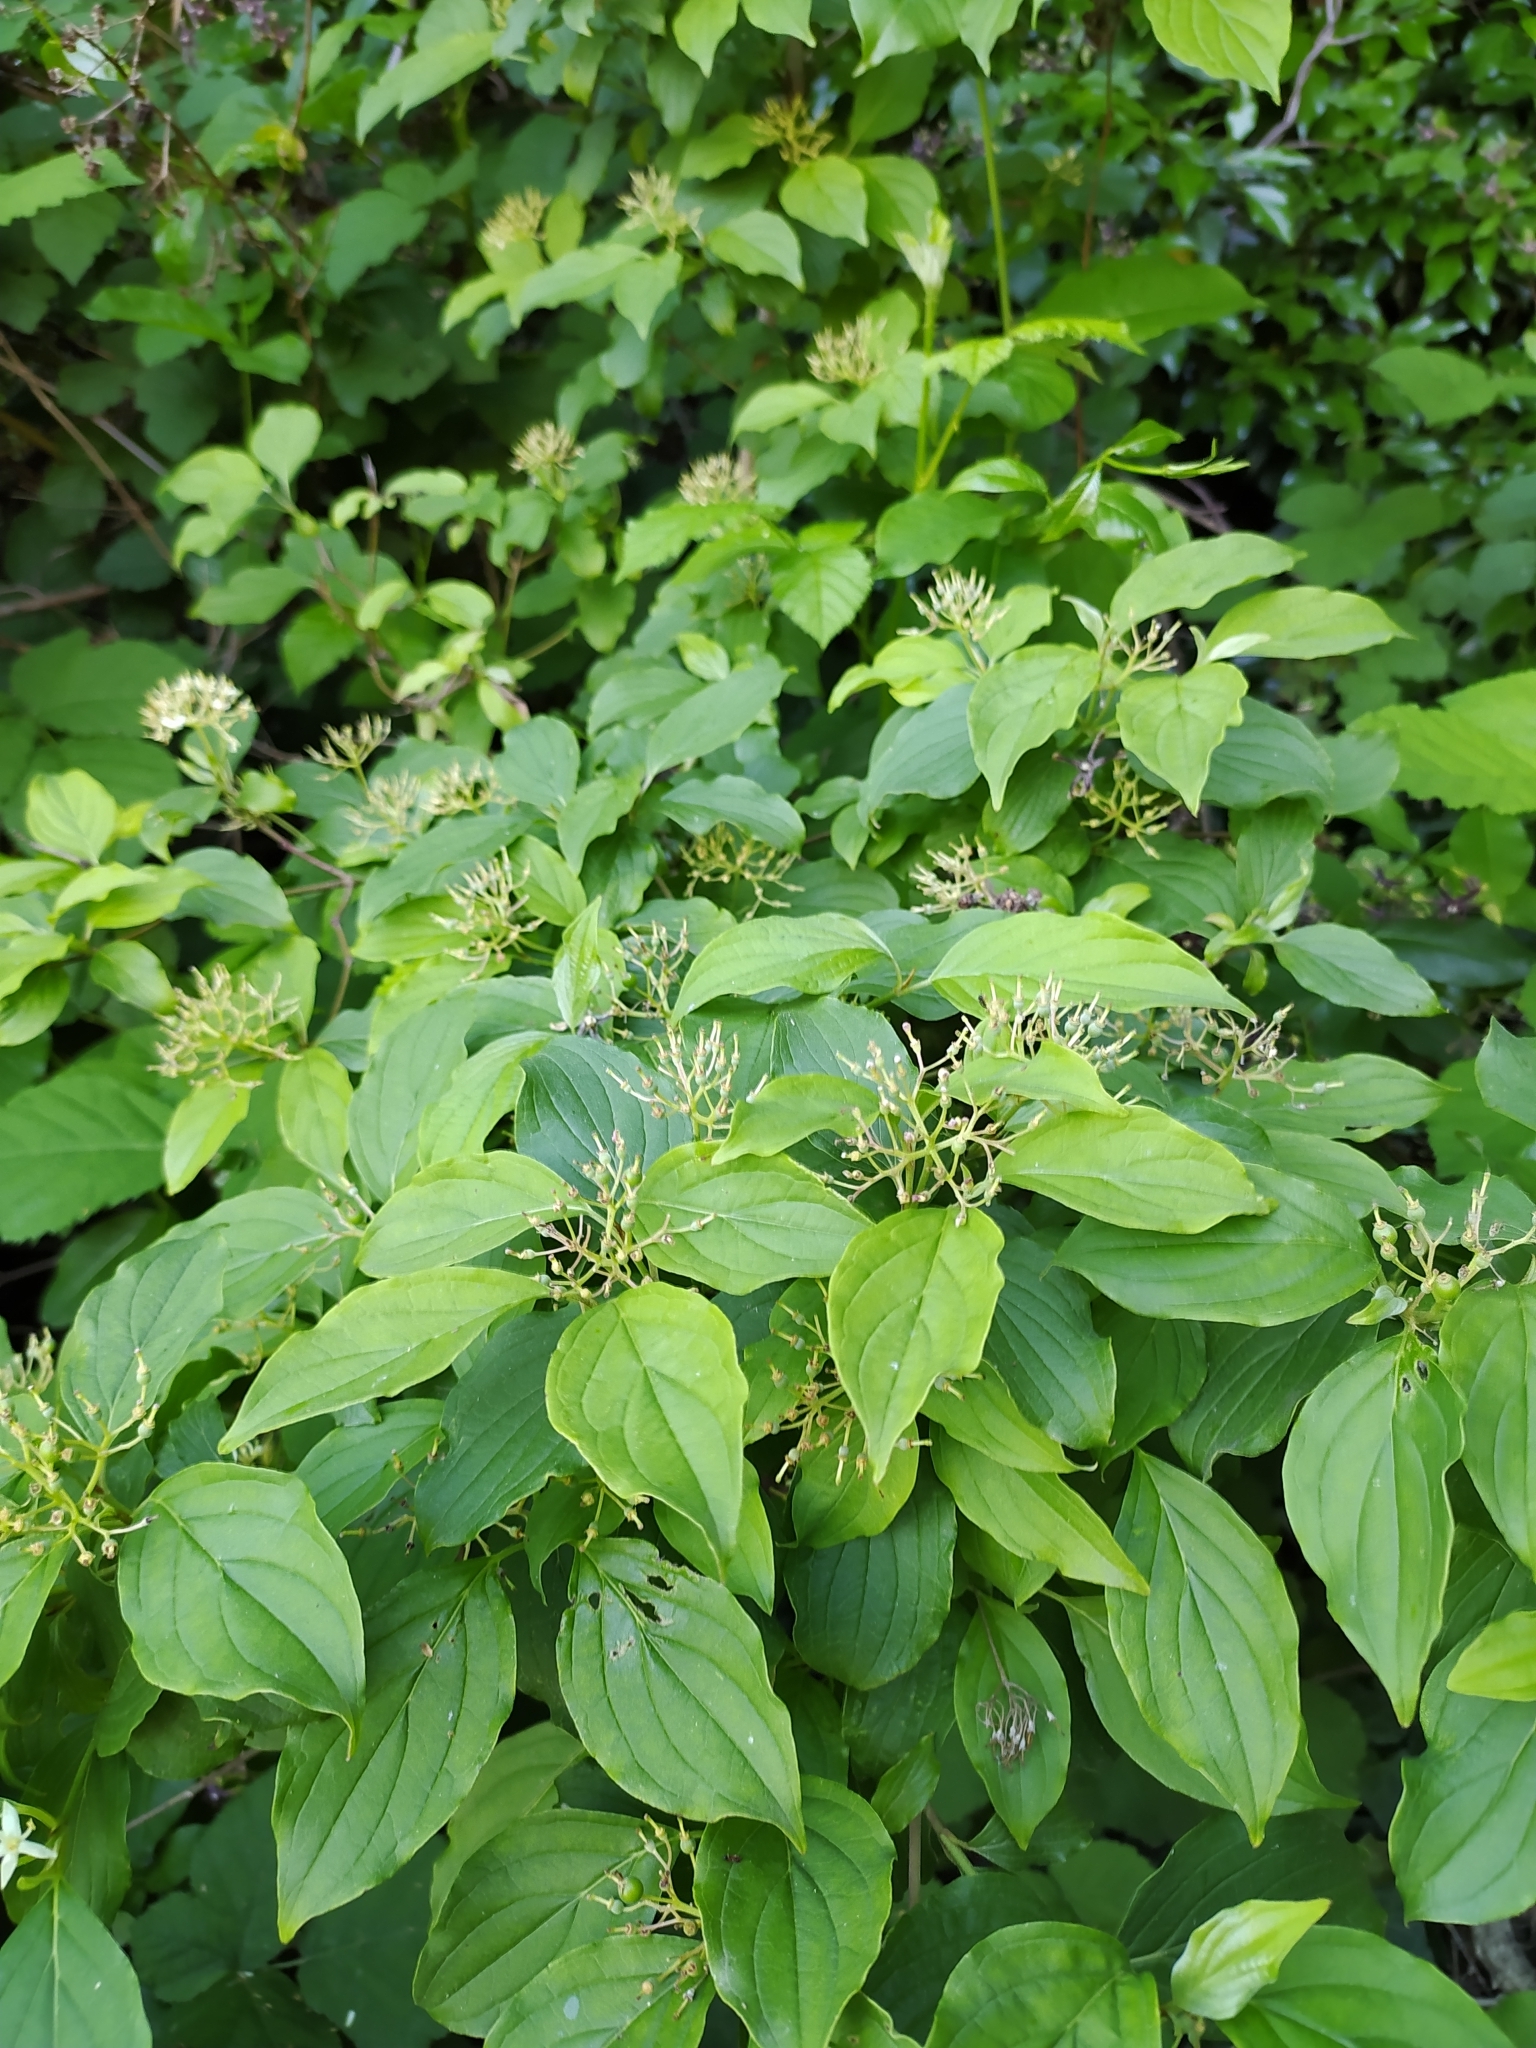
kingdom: Plantae
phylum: Tracheophyta
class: Magnoliopsida
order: Cornales
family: Cornaceae
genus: Cornus
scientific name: Cornus sanguinea
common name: Dogwood
